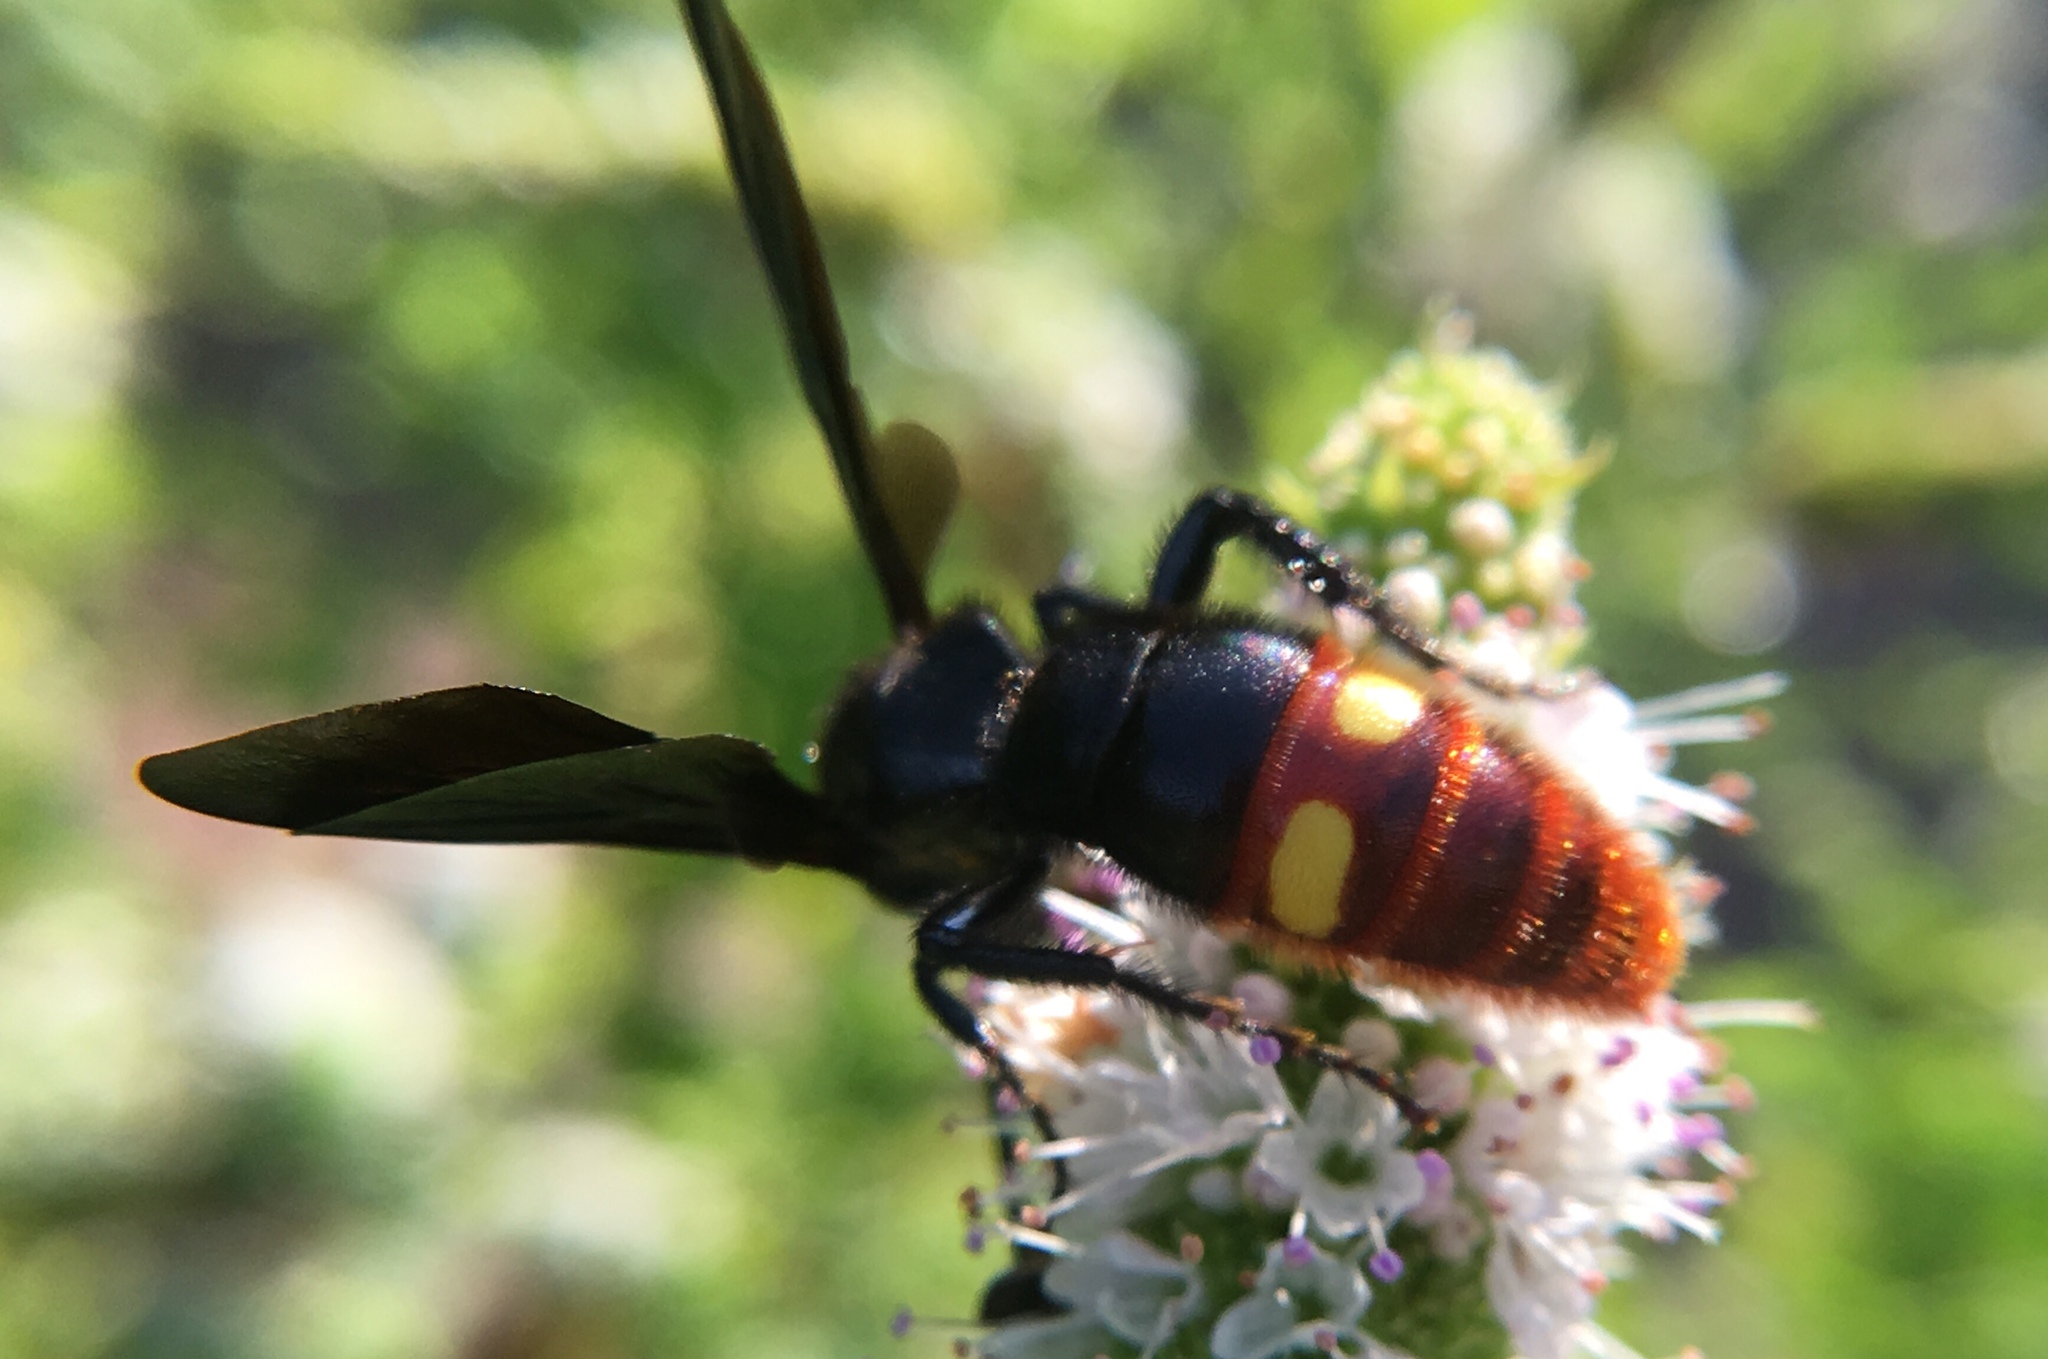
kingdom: Animalia
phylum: Arthropoda
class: Insecta
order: Hymenoptera
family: Scoliidae
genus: Scolia
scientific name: Scolia dubia
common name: Blue-winged scoliid wasp
